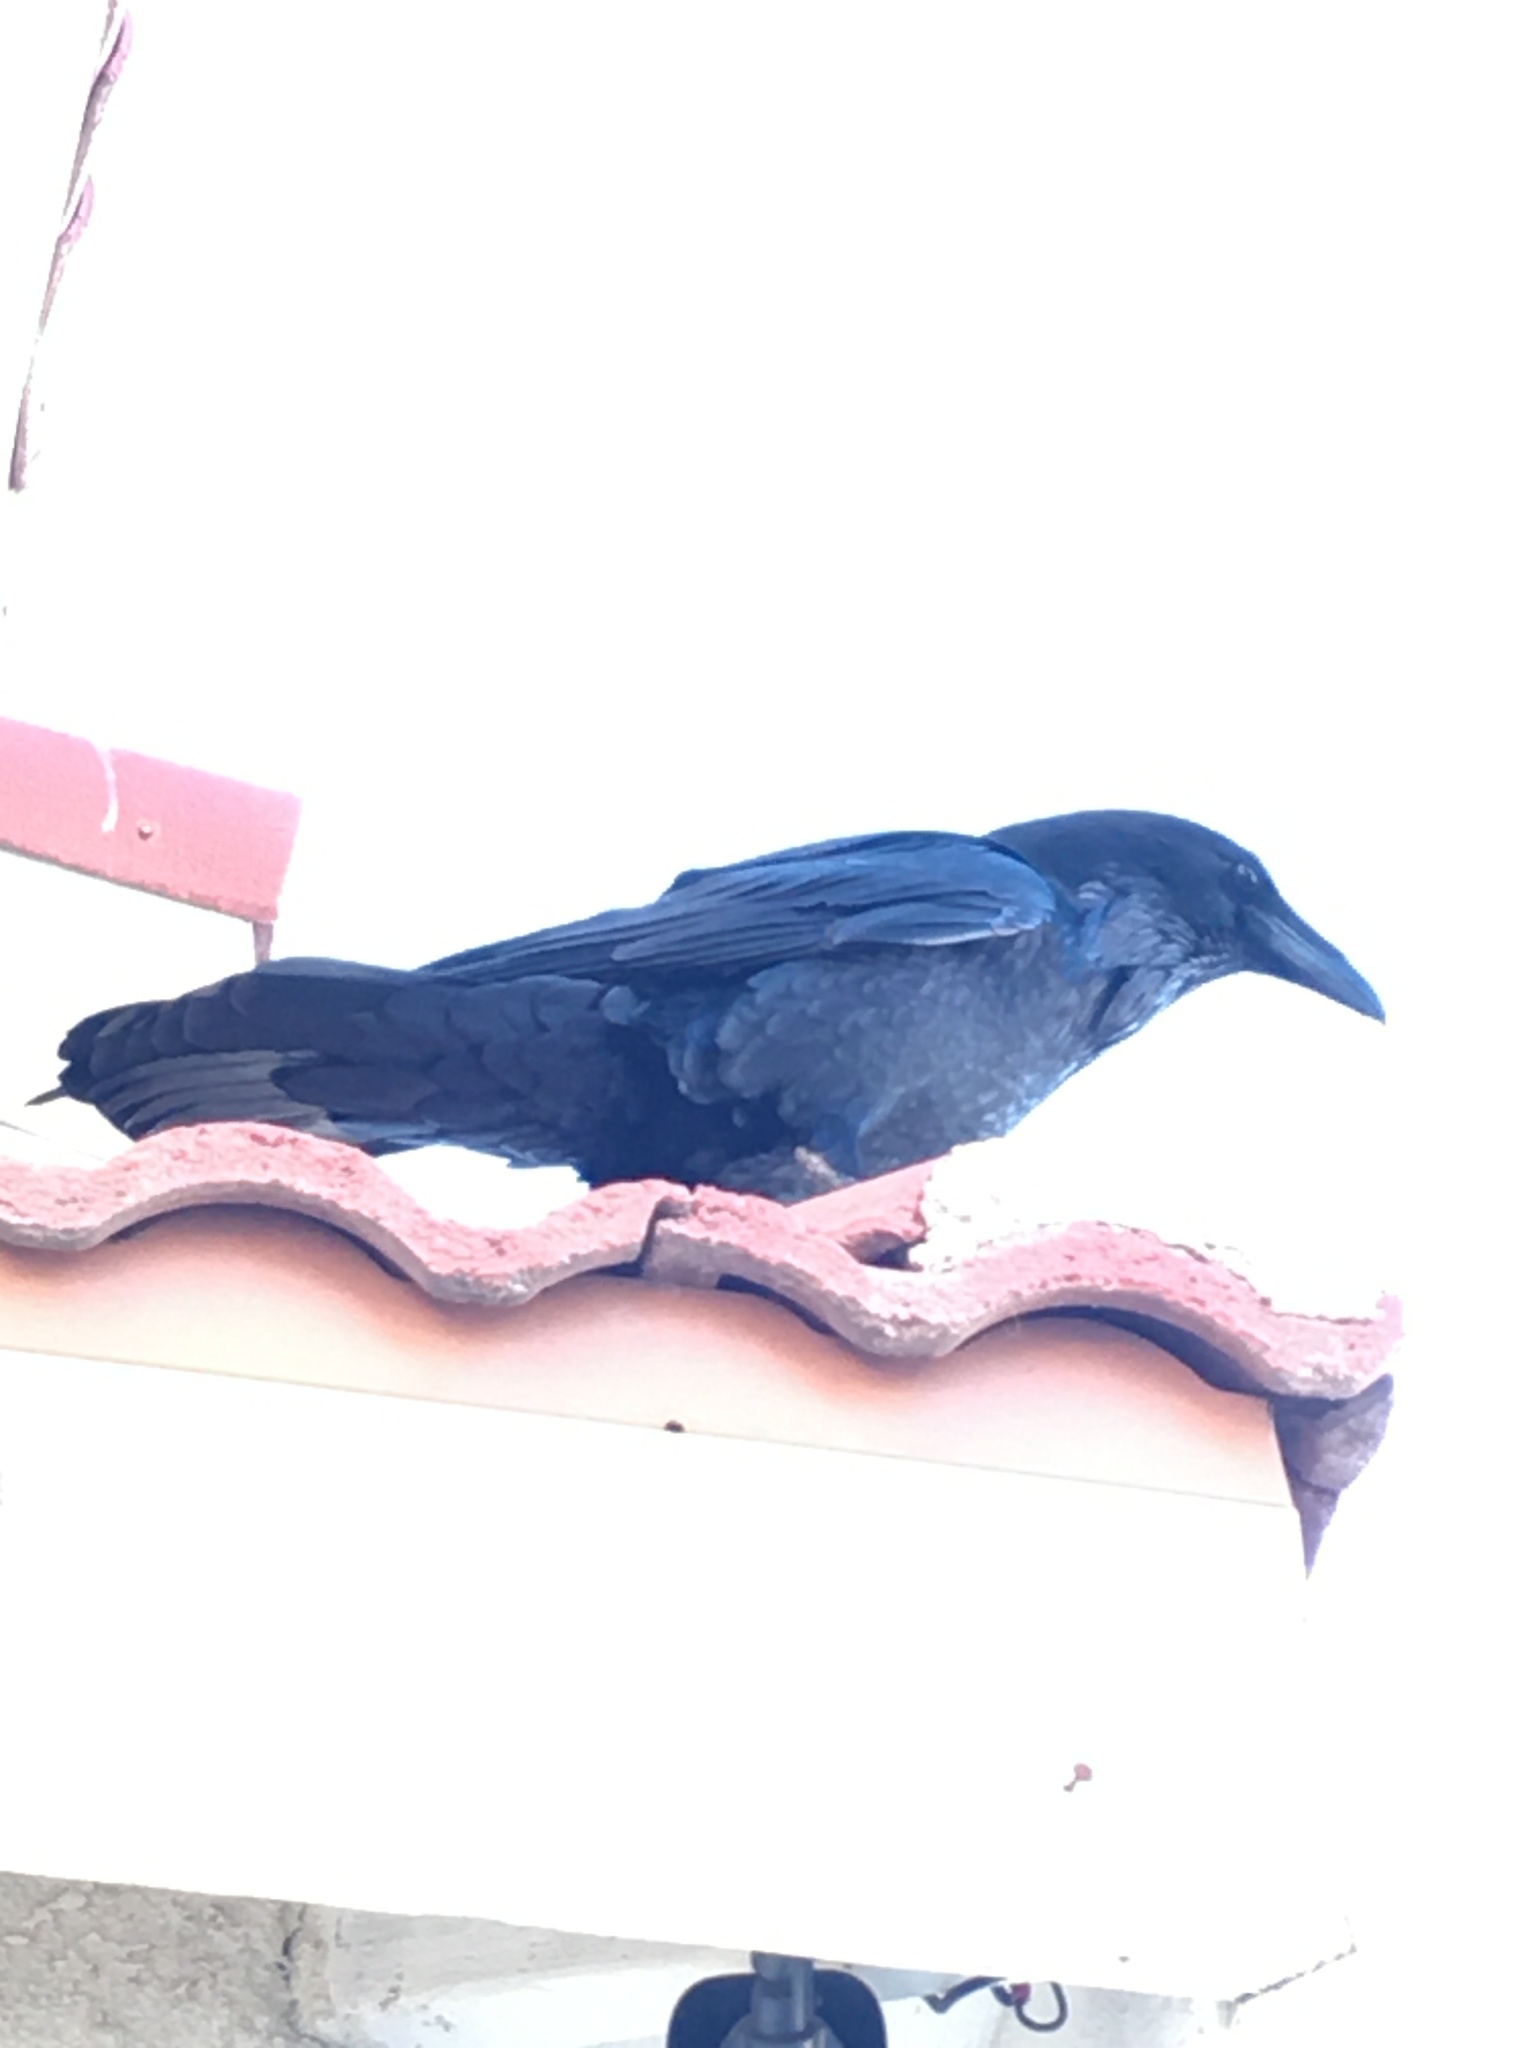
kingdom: Animalia
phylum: Chordata
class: Aves
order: Passeriformes
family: Corvidae
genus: Corvus
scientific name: Corvus corax
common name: Common raven
